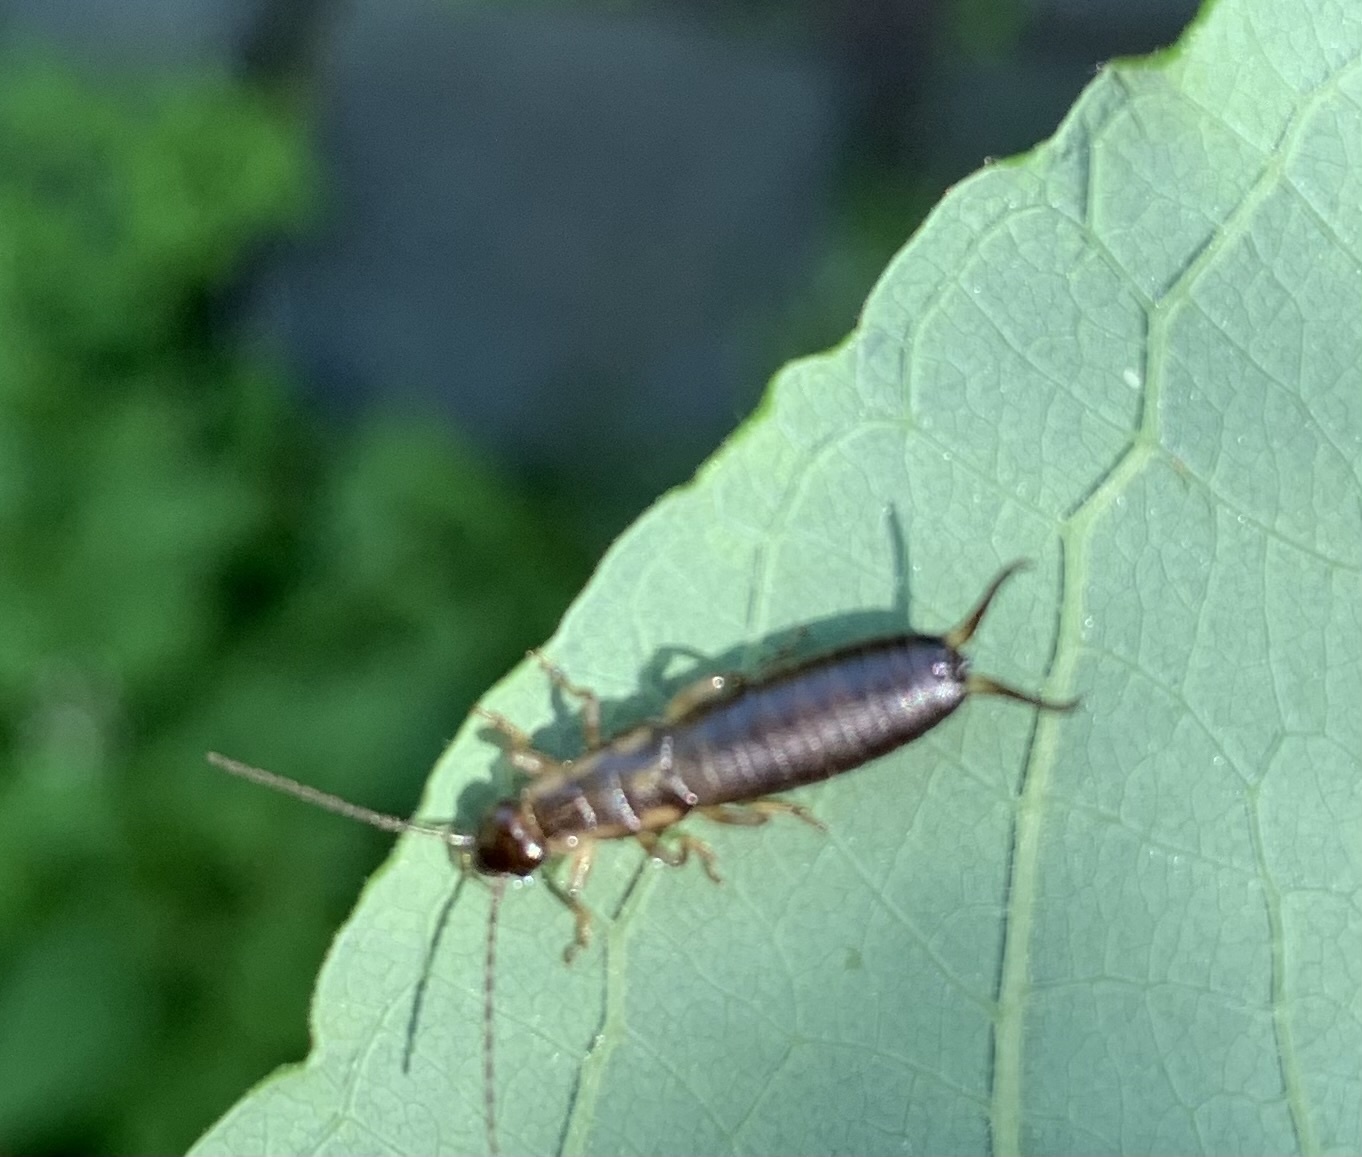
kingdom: Animalia
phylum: Arthropoda
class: Insecta
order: Dermaptera
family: Forficulidae
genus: Forficula
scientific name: Forficula
